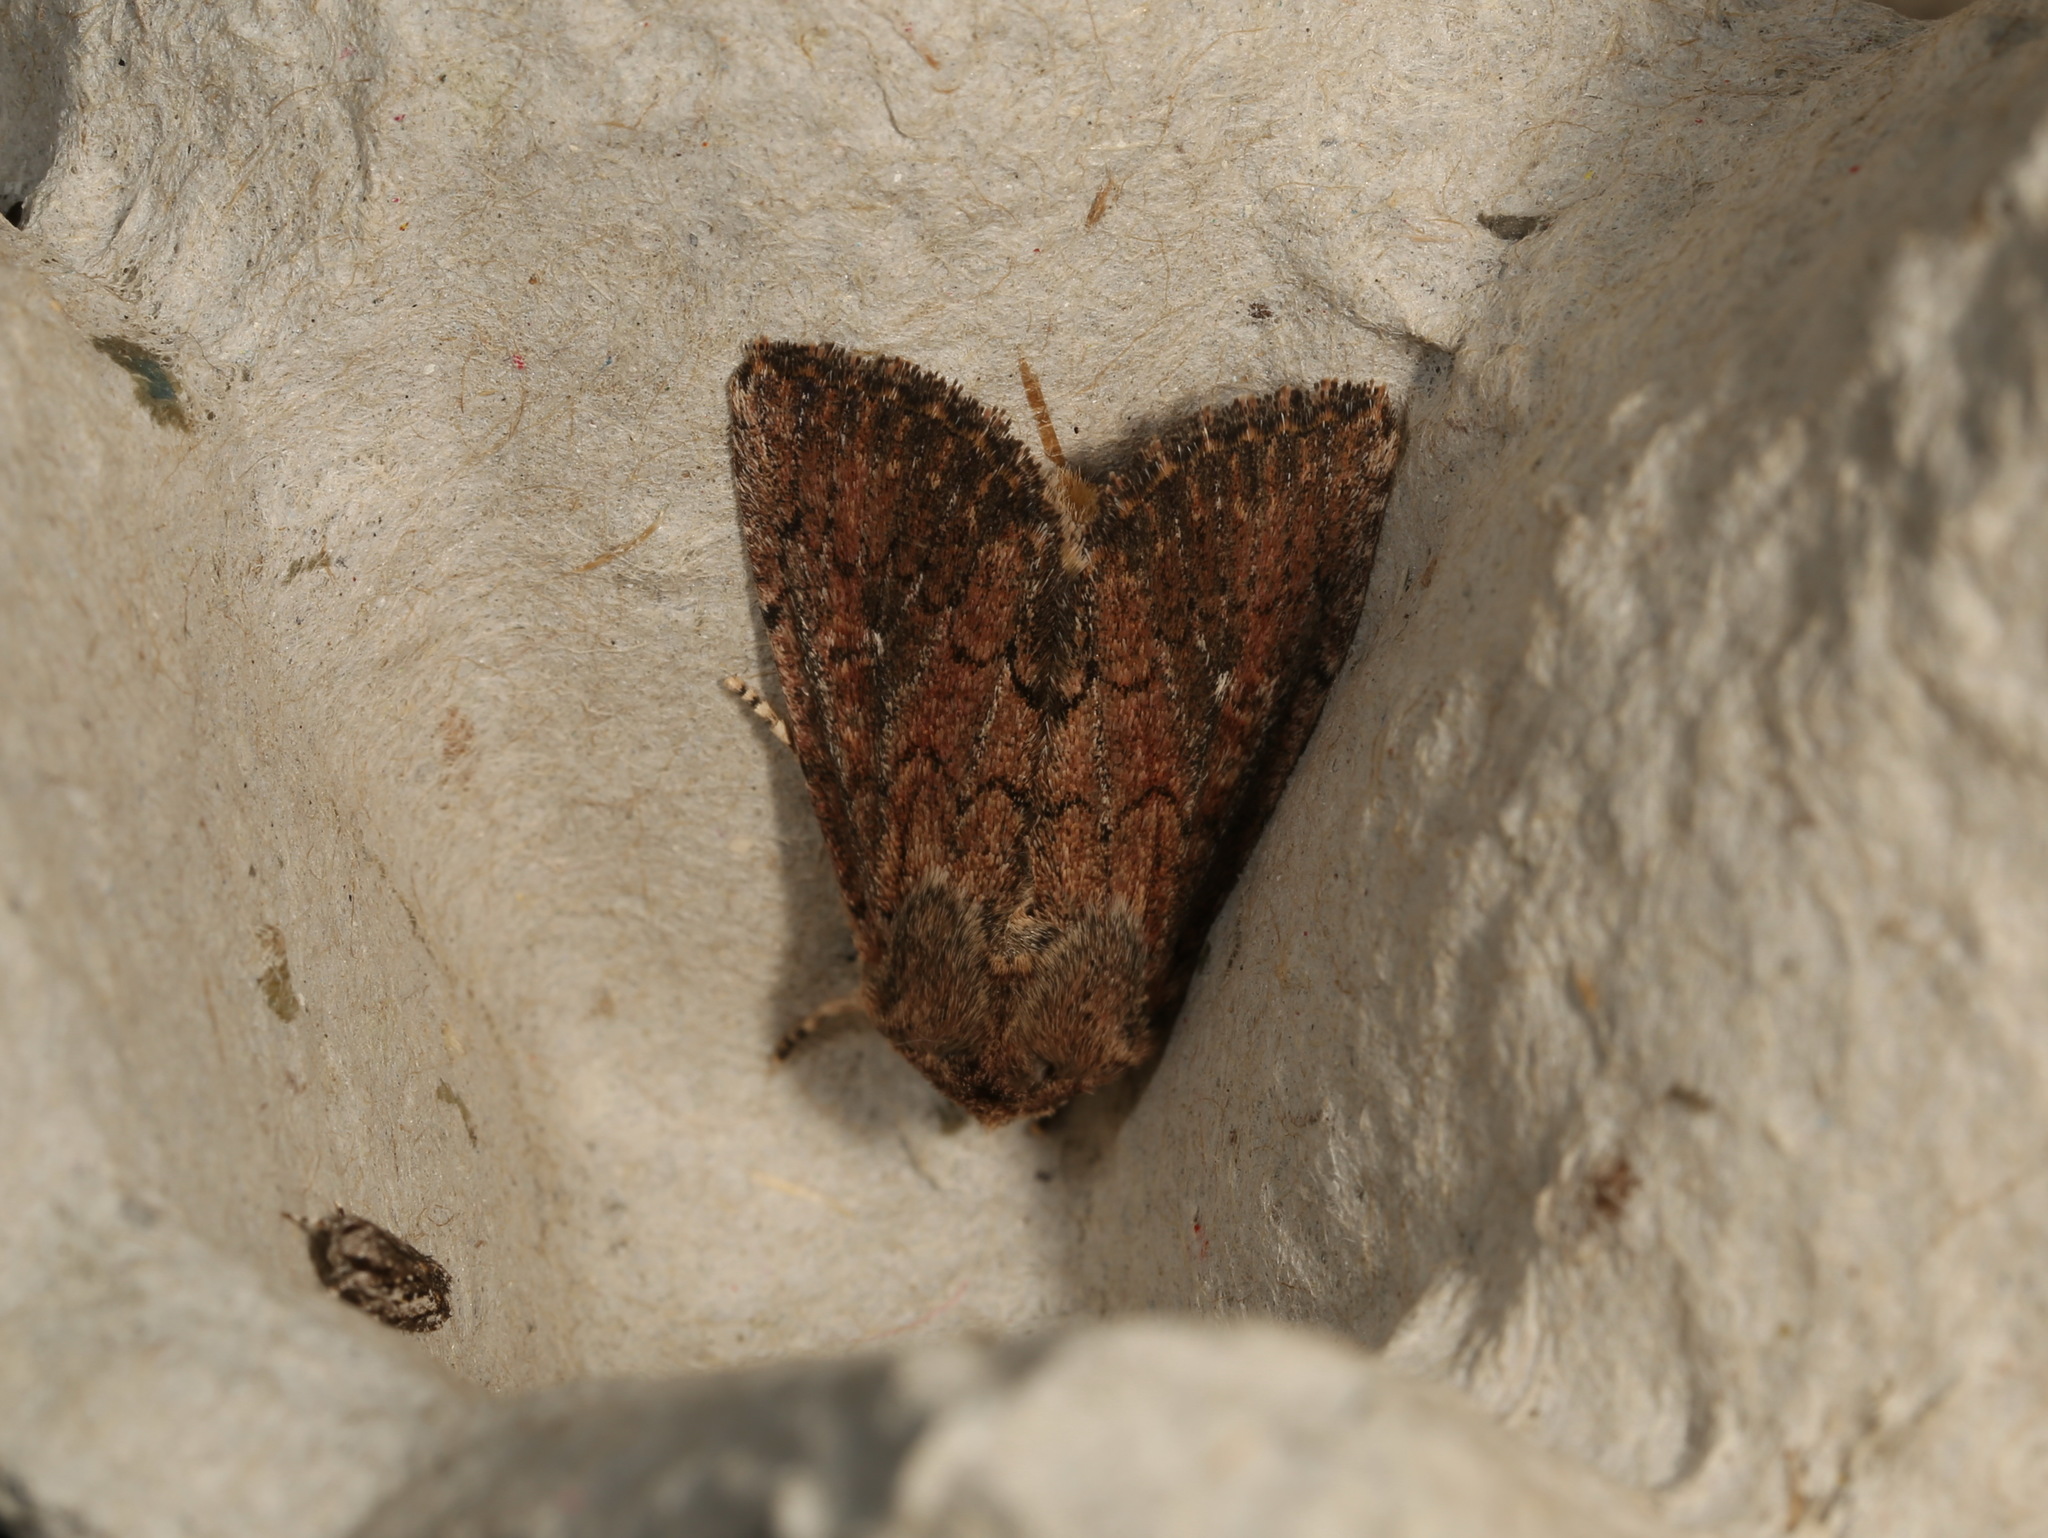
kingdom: Animalia
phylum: Arthropoda
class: Insecta
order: Lepidoptera
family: Noctuidae
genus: Dasygaster
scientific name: Dasygaster padockina
